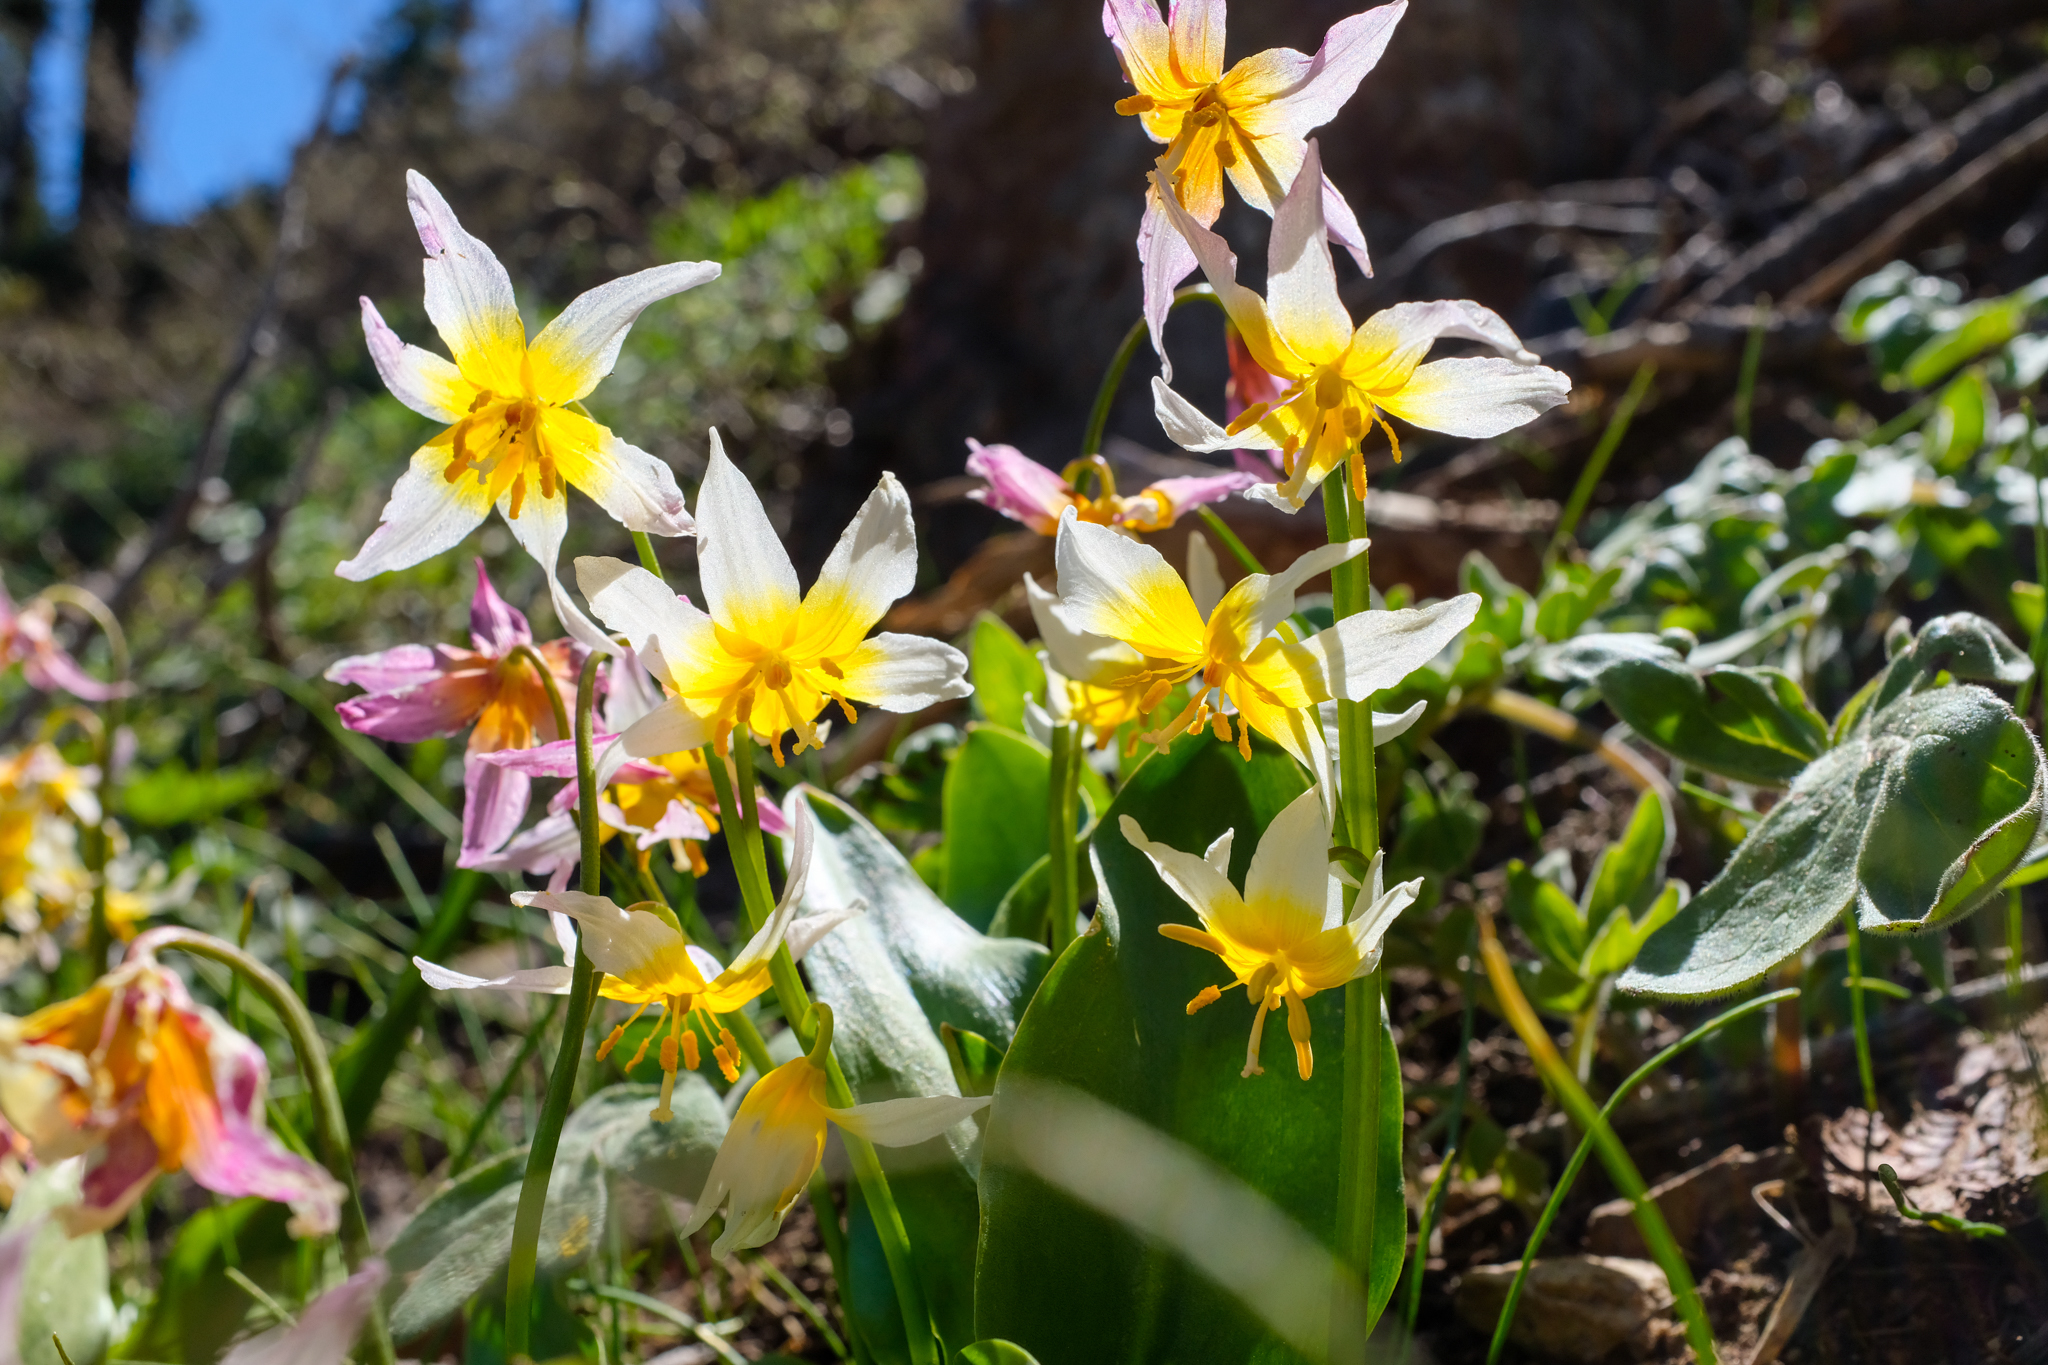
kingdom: Plantae
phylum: Tracheophyta
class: Liliopsida
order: Liliales
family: Liliaceae
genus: Erythronium
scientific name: Erythronium pusaterii
